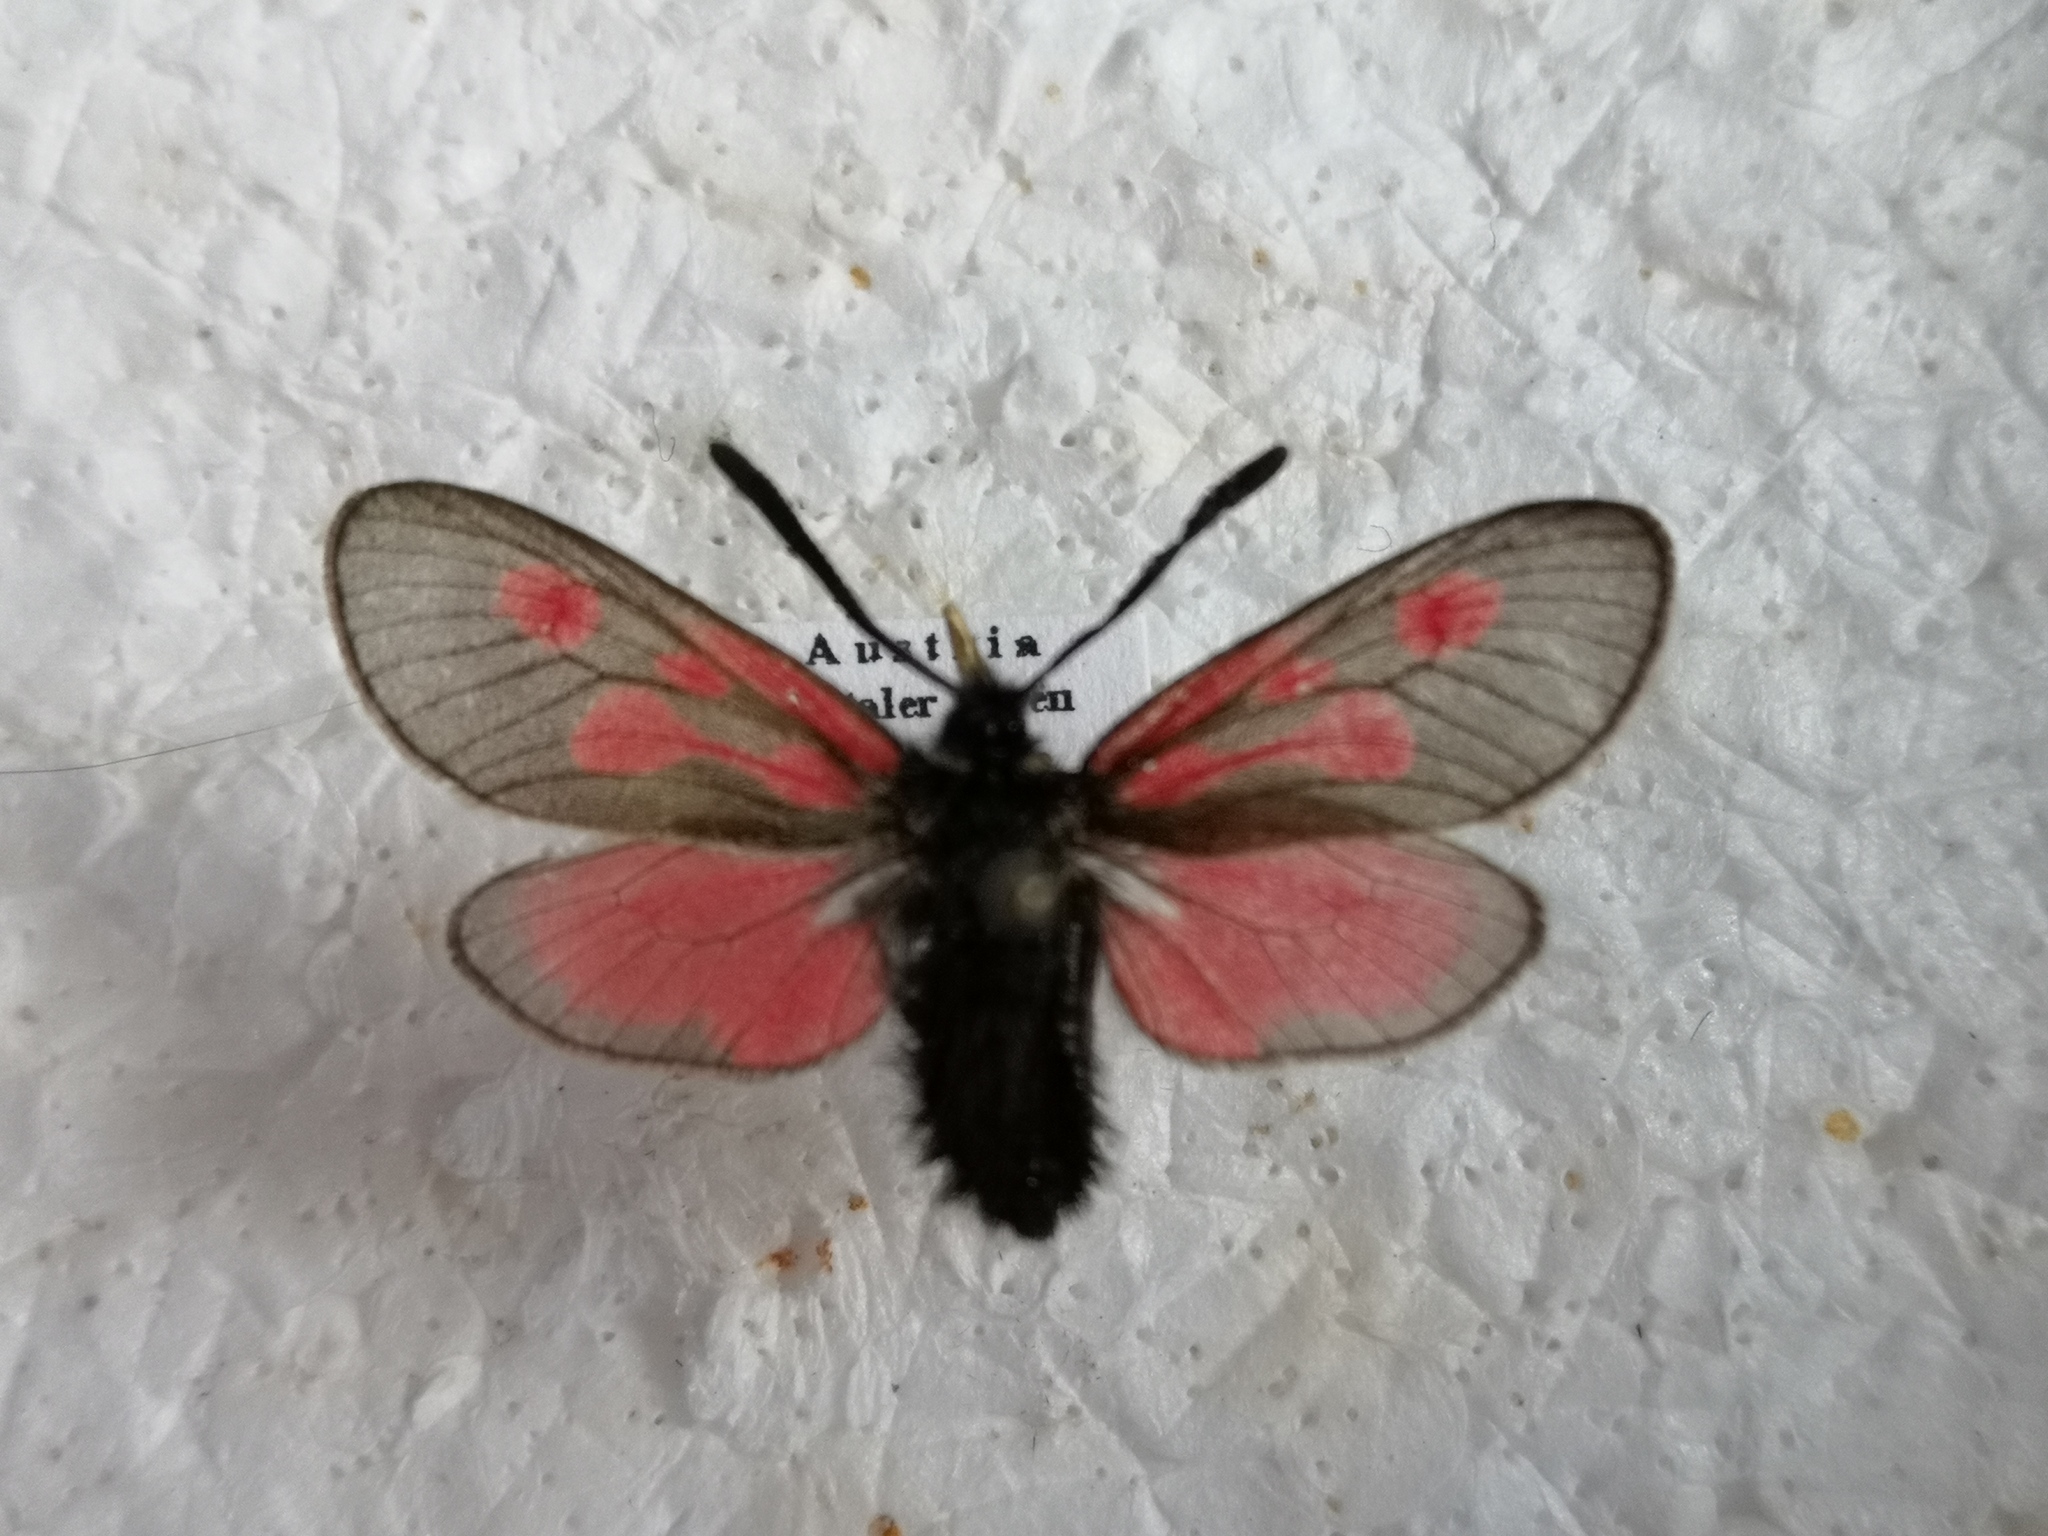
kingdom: Animalia
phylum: Arthropoda
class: Insecta
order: Lepidoptera
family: Zygaenidae
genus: Zygaena
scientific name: Zygaena exulans
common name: Scotch burnet
